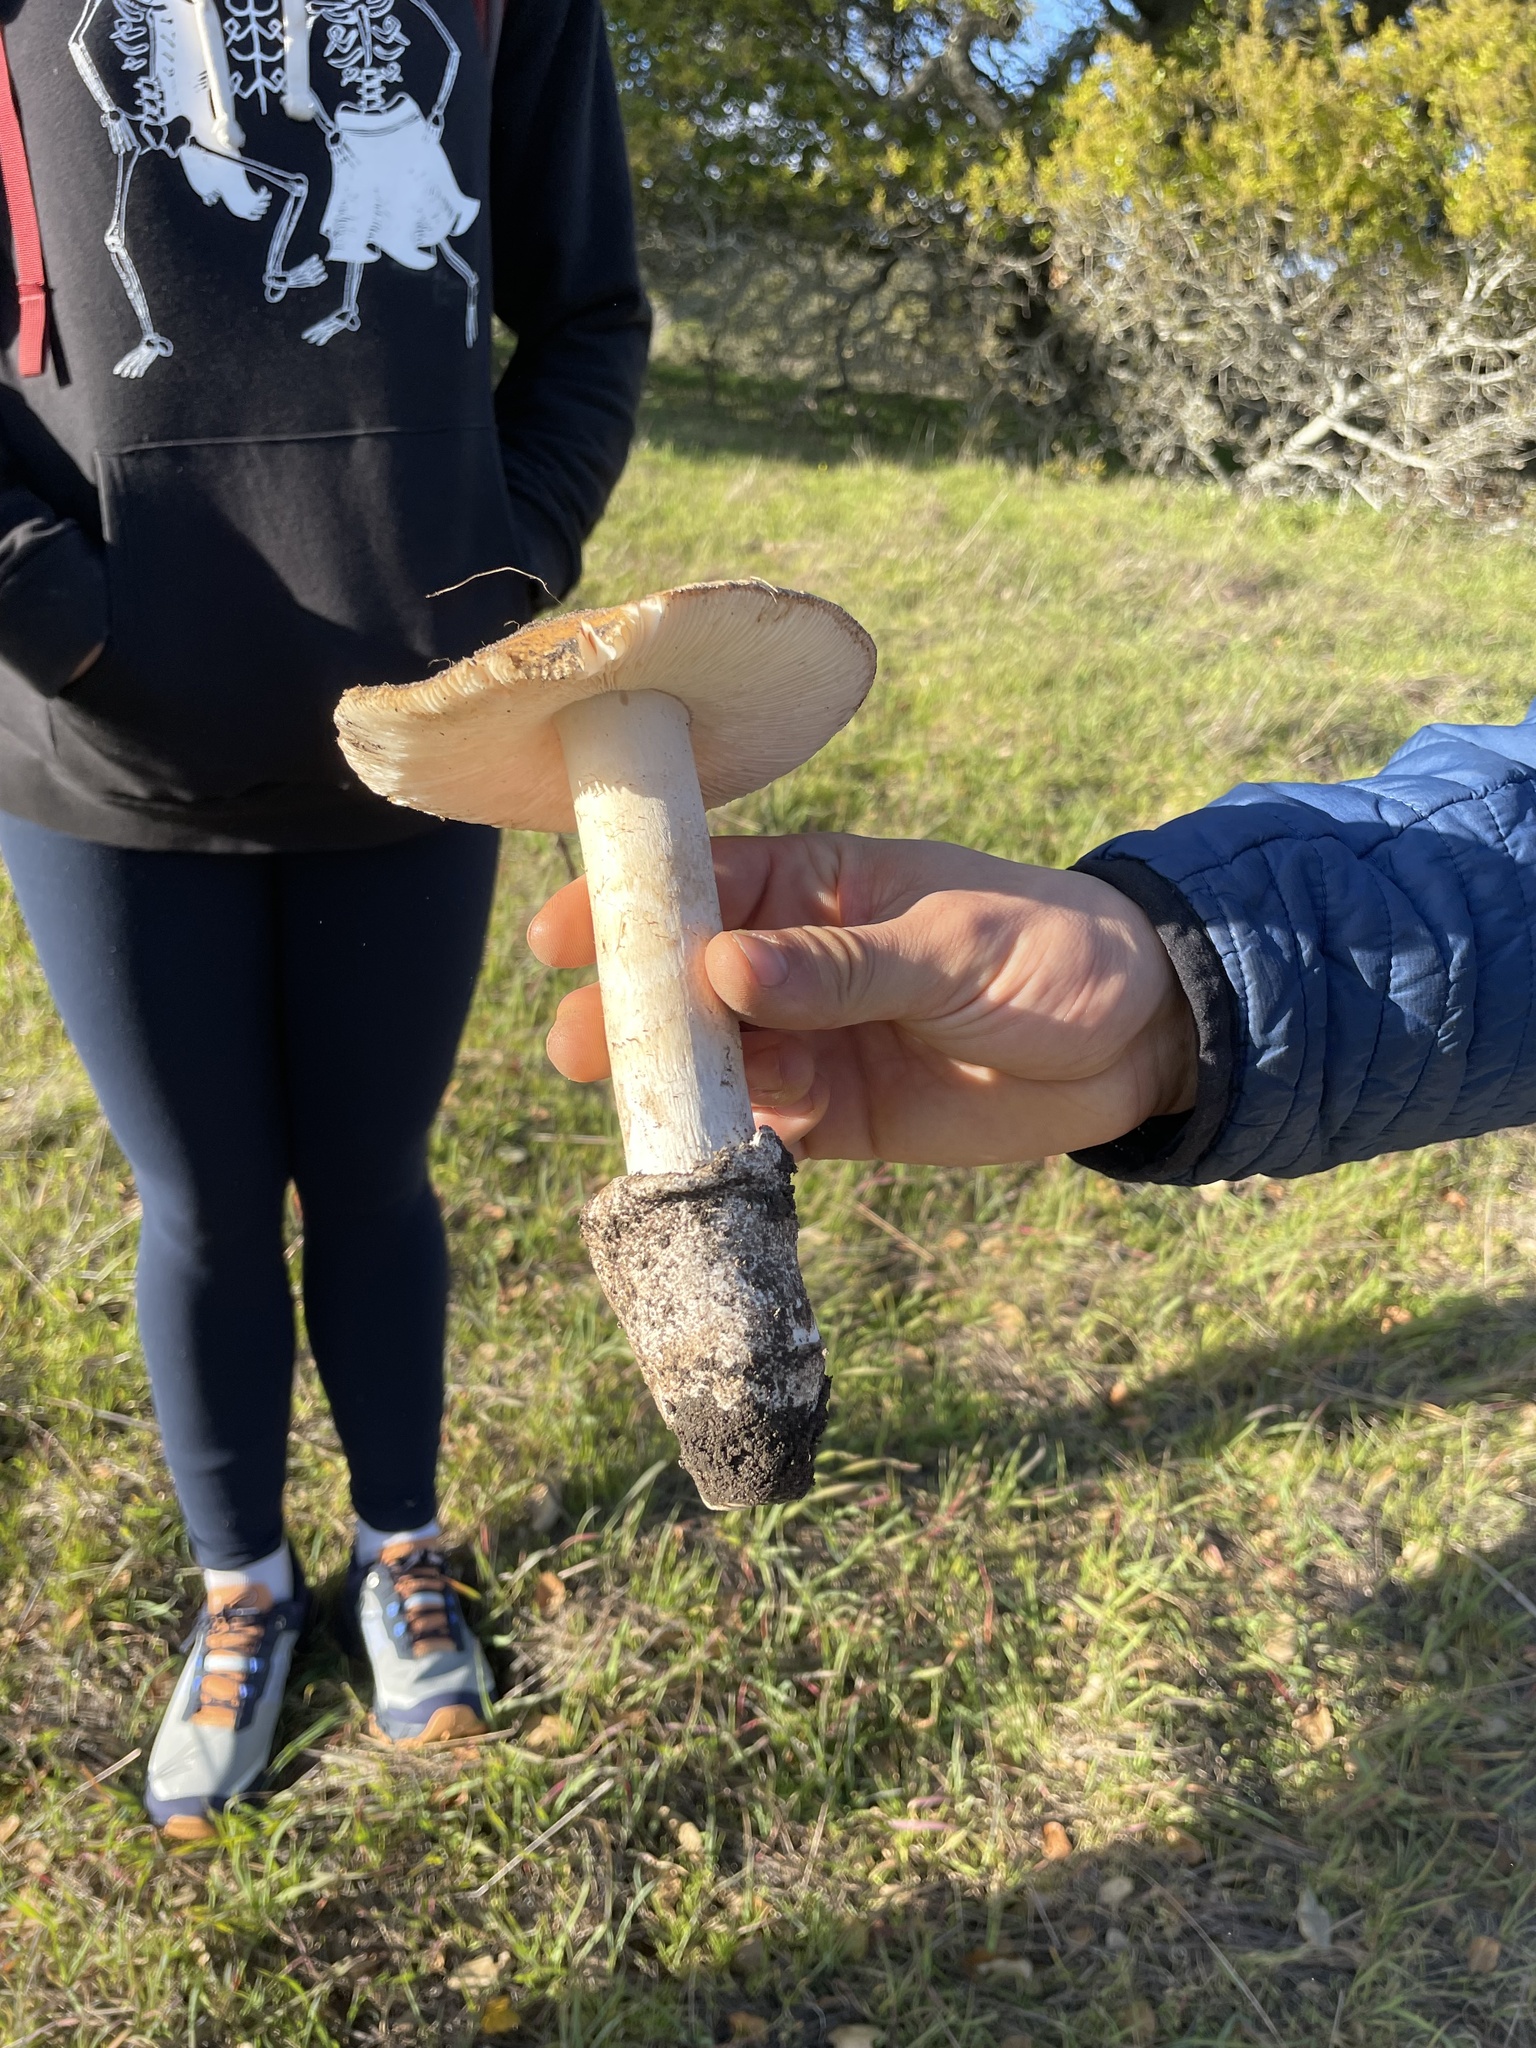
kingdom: Fungi
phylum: Basidiomycota
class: Agaricomycetes
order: Agaricales
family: Amanitaceae
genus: Amanita
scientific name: Amanita velosa
